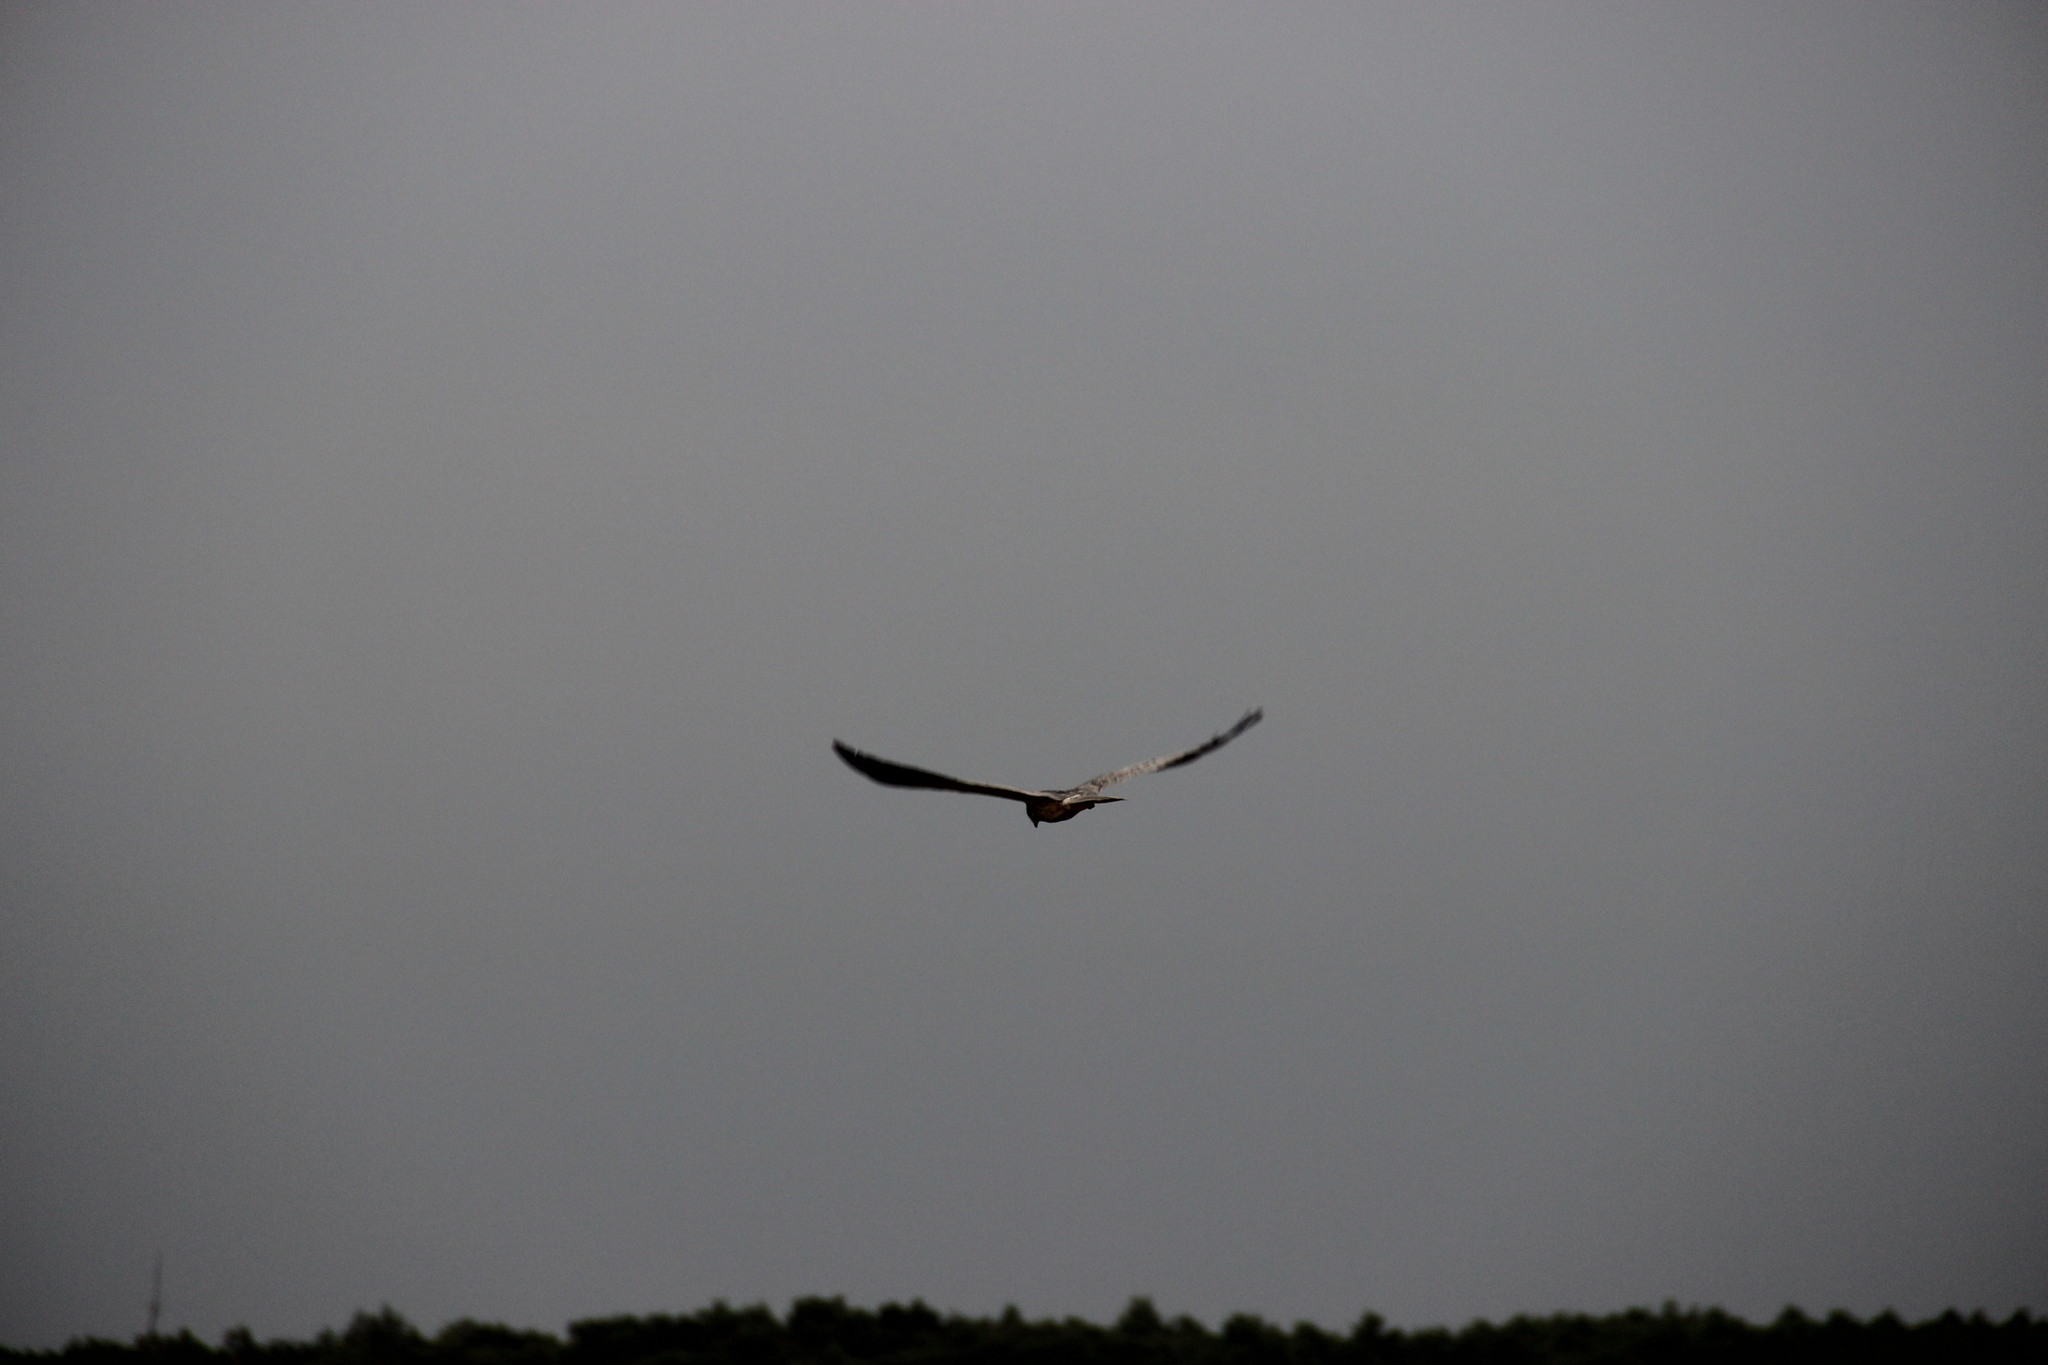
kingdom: Animalia
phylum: Chordata
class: Aves
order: Accipitriformes
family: Accipitridae
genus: Circus
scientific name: Circus aeruginosus
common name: Western marsh harrier
